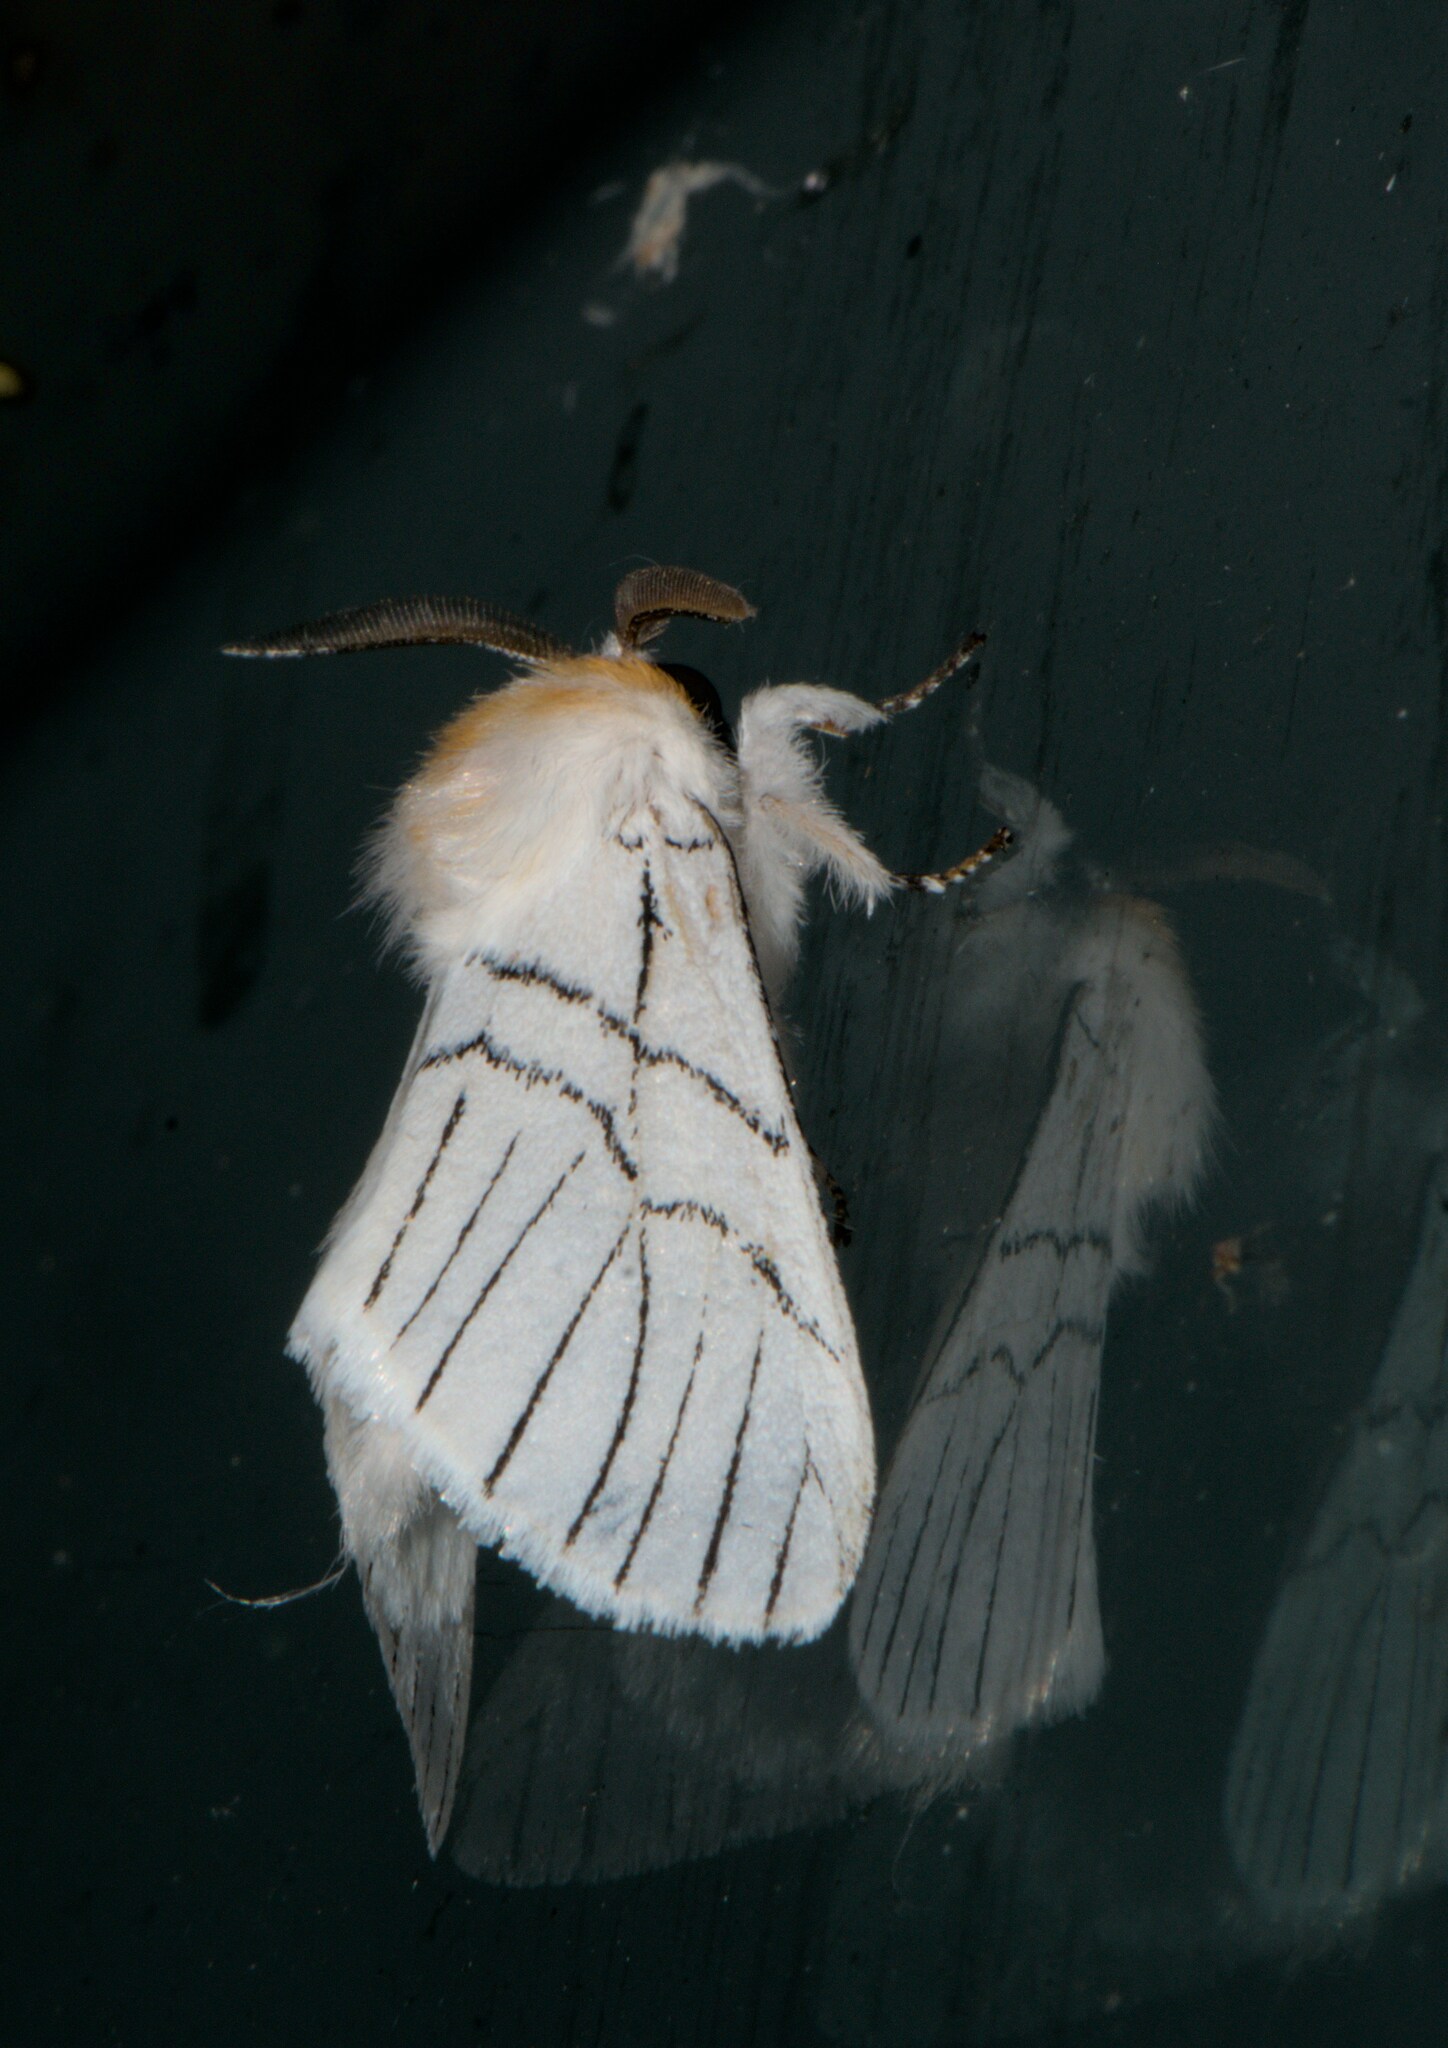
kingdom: Animalia
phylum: Arthropoda
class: Insecta
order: Lepidoptera
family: Notodontidae
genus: Oligoclona
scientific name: Oligoclona chrysolopha
